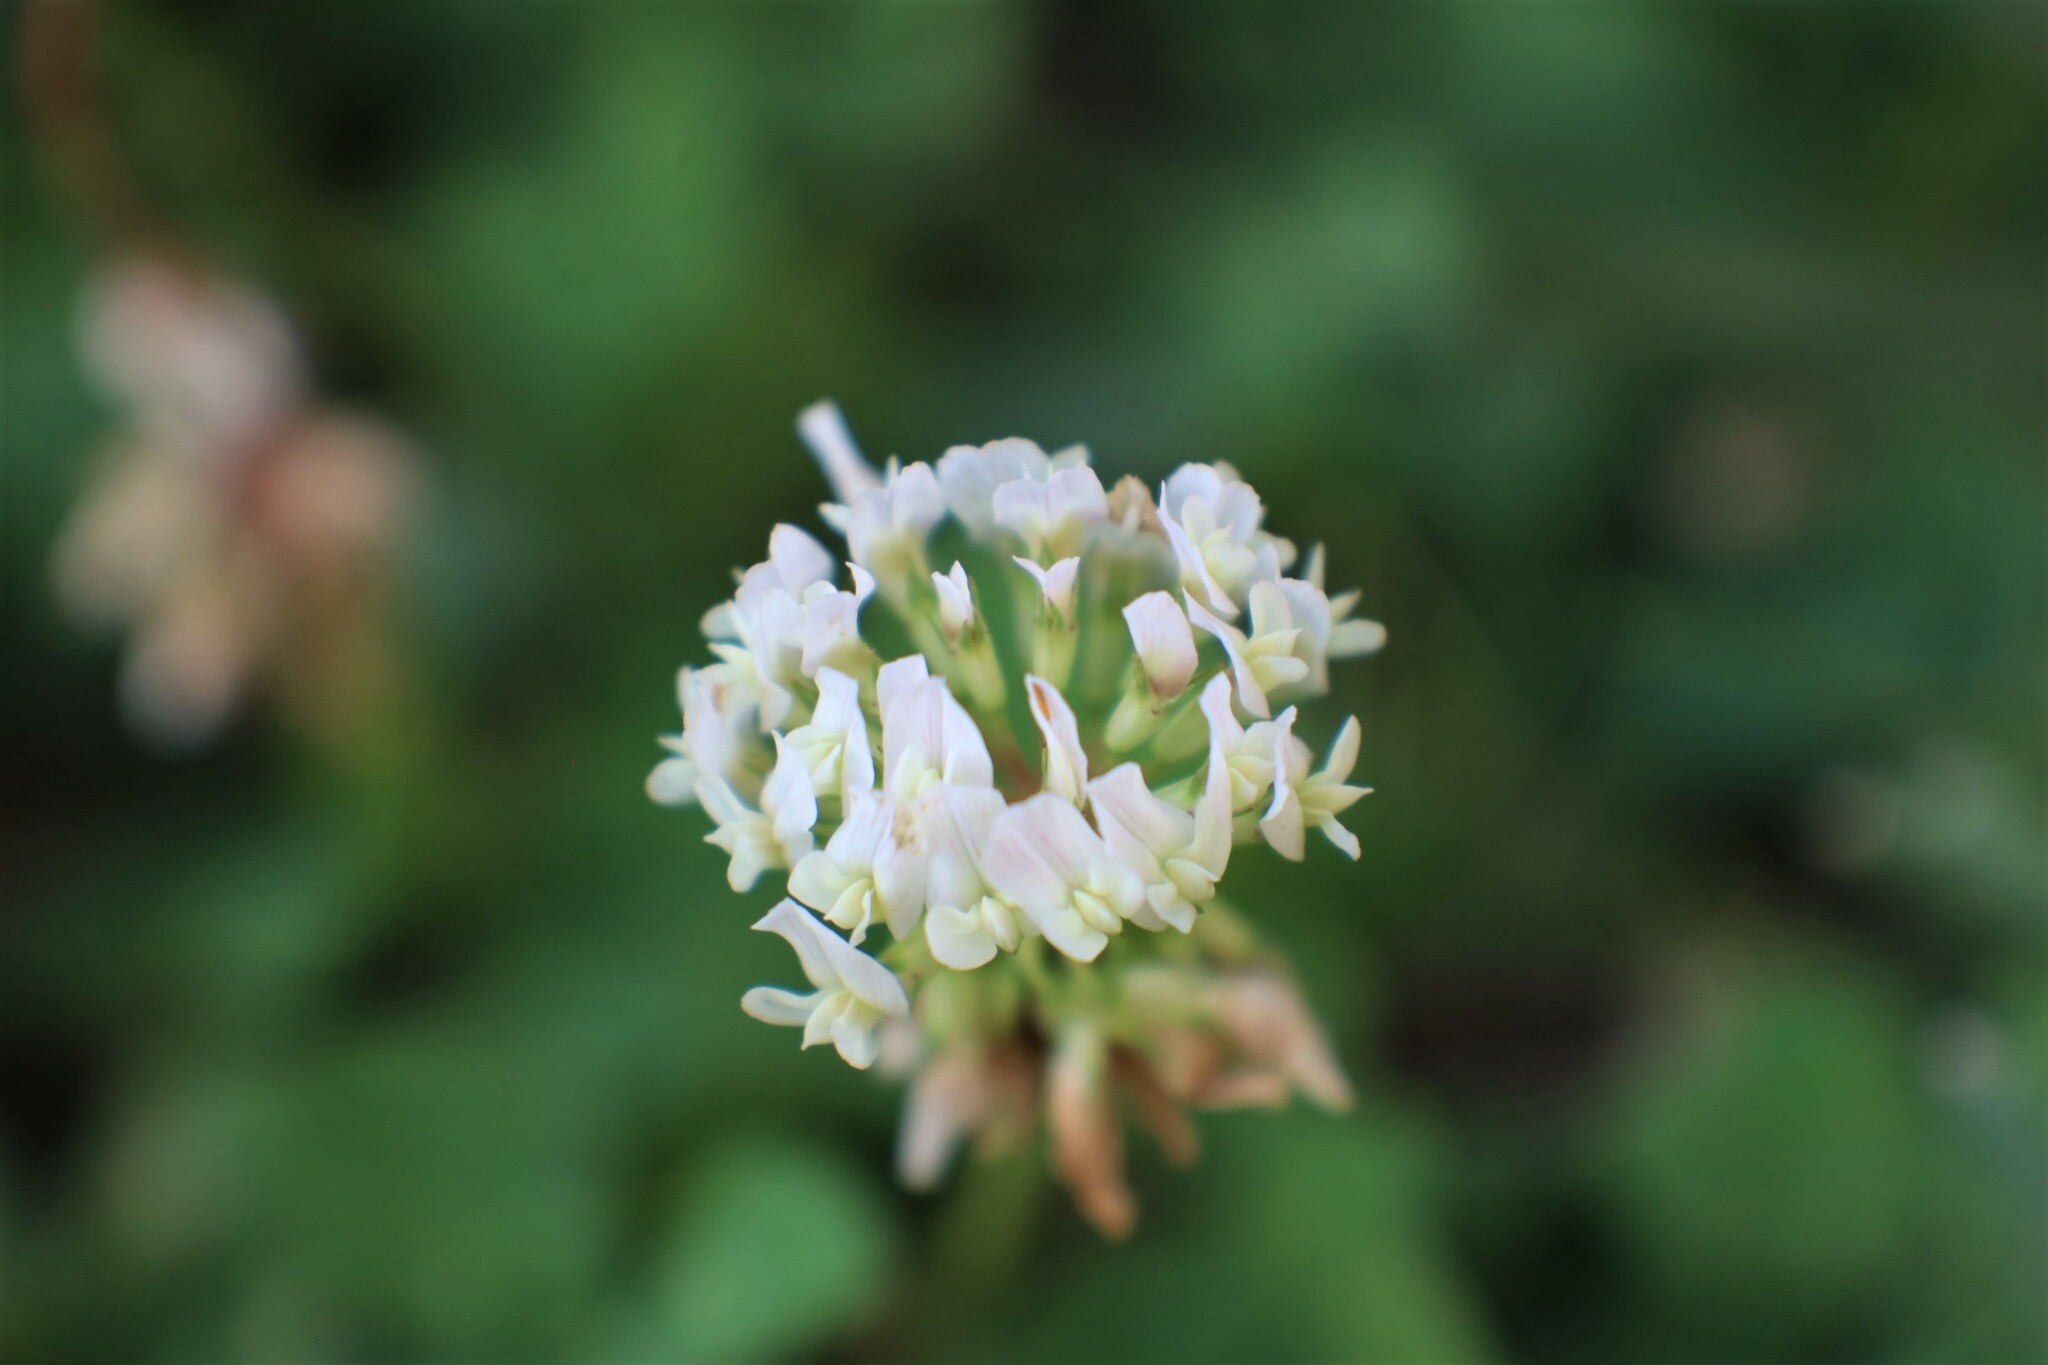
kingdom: Plantae
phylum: Tracheophyta
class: Magnoliopsida
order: Fabales
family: Fabaceae
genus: Trifolium
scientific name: Trifolium repens
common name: White clover
